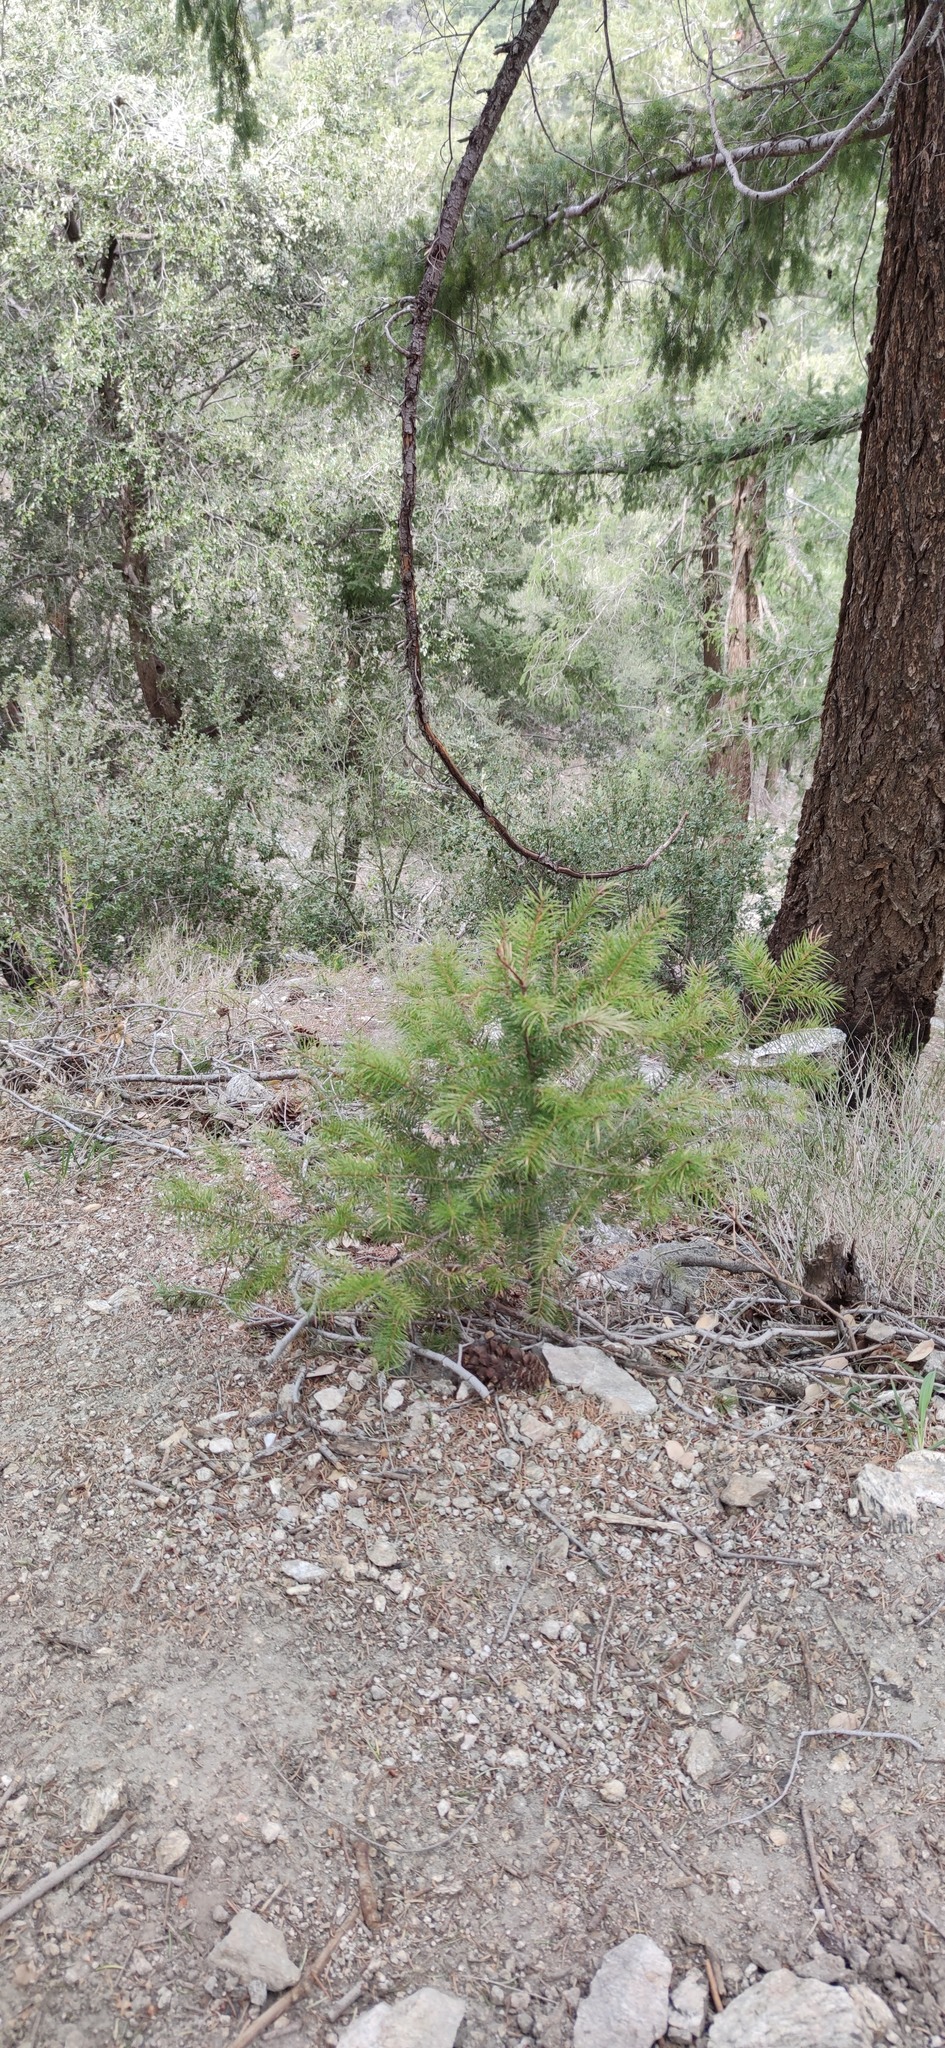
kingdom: Plantae
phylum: Tracheophyta
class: Pinopsida
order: Pinales
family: Pinaceae
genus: Pseudotsuga
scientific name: Pseudotsuga macrocarpa
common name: Big-cone douglas-fir
